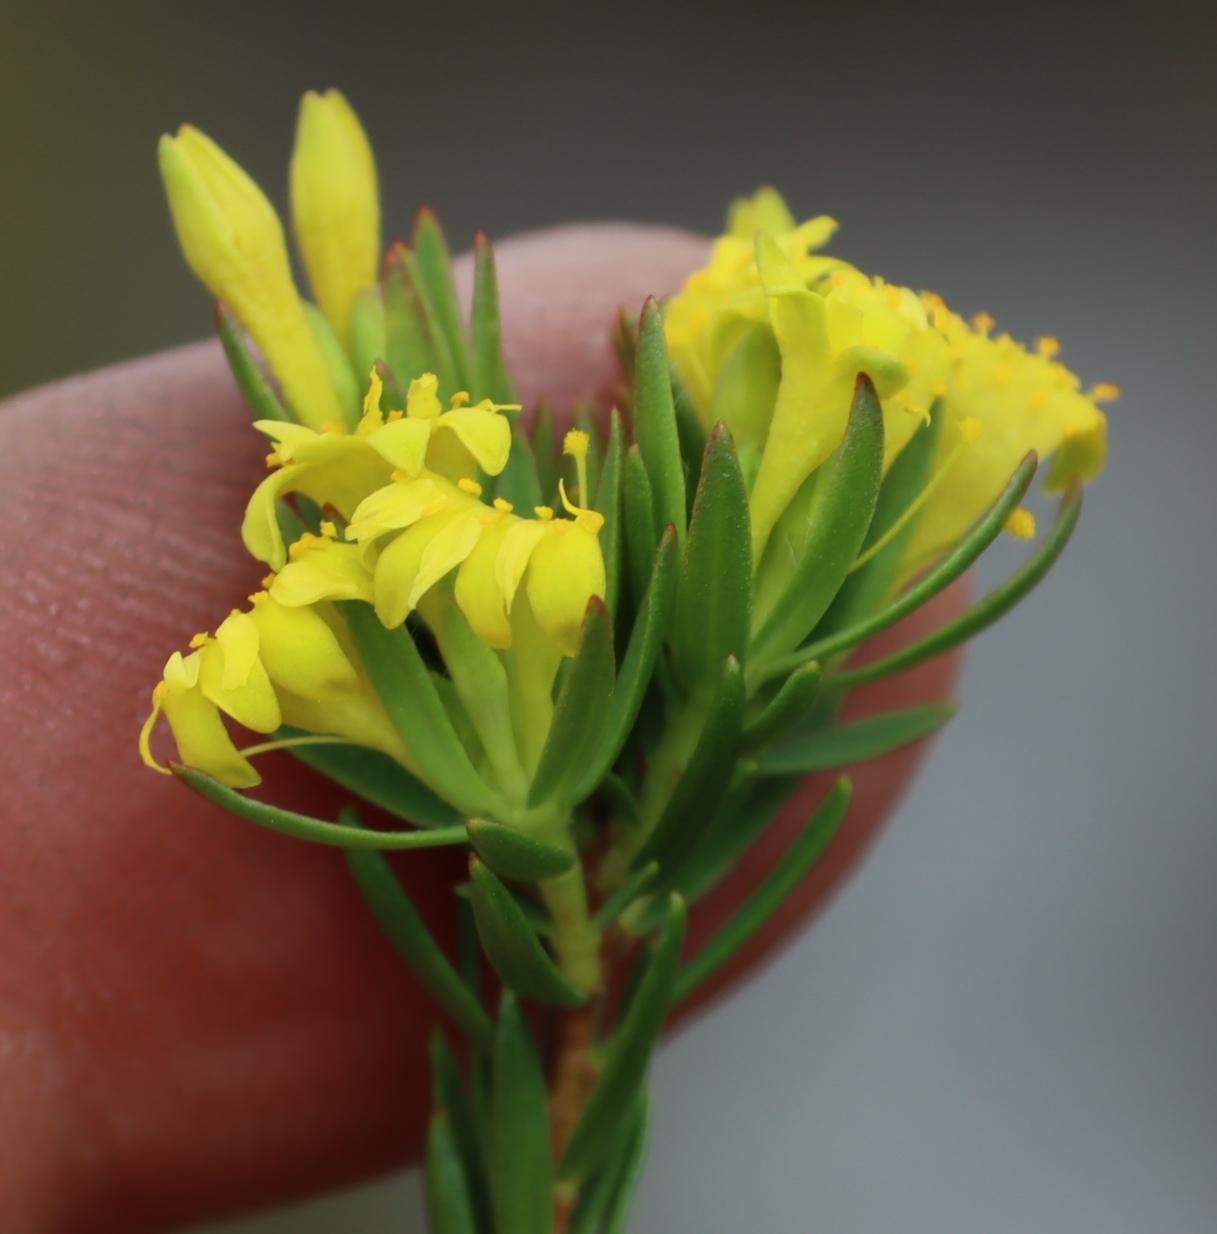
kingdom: Plantae
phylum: Tracheophyta
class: Magnoliopsida
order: Malvales
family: Thymelaeaceae
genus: Gnidia
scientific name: Gnidia juniperifolia
